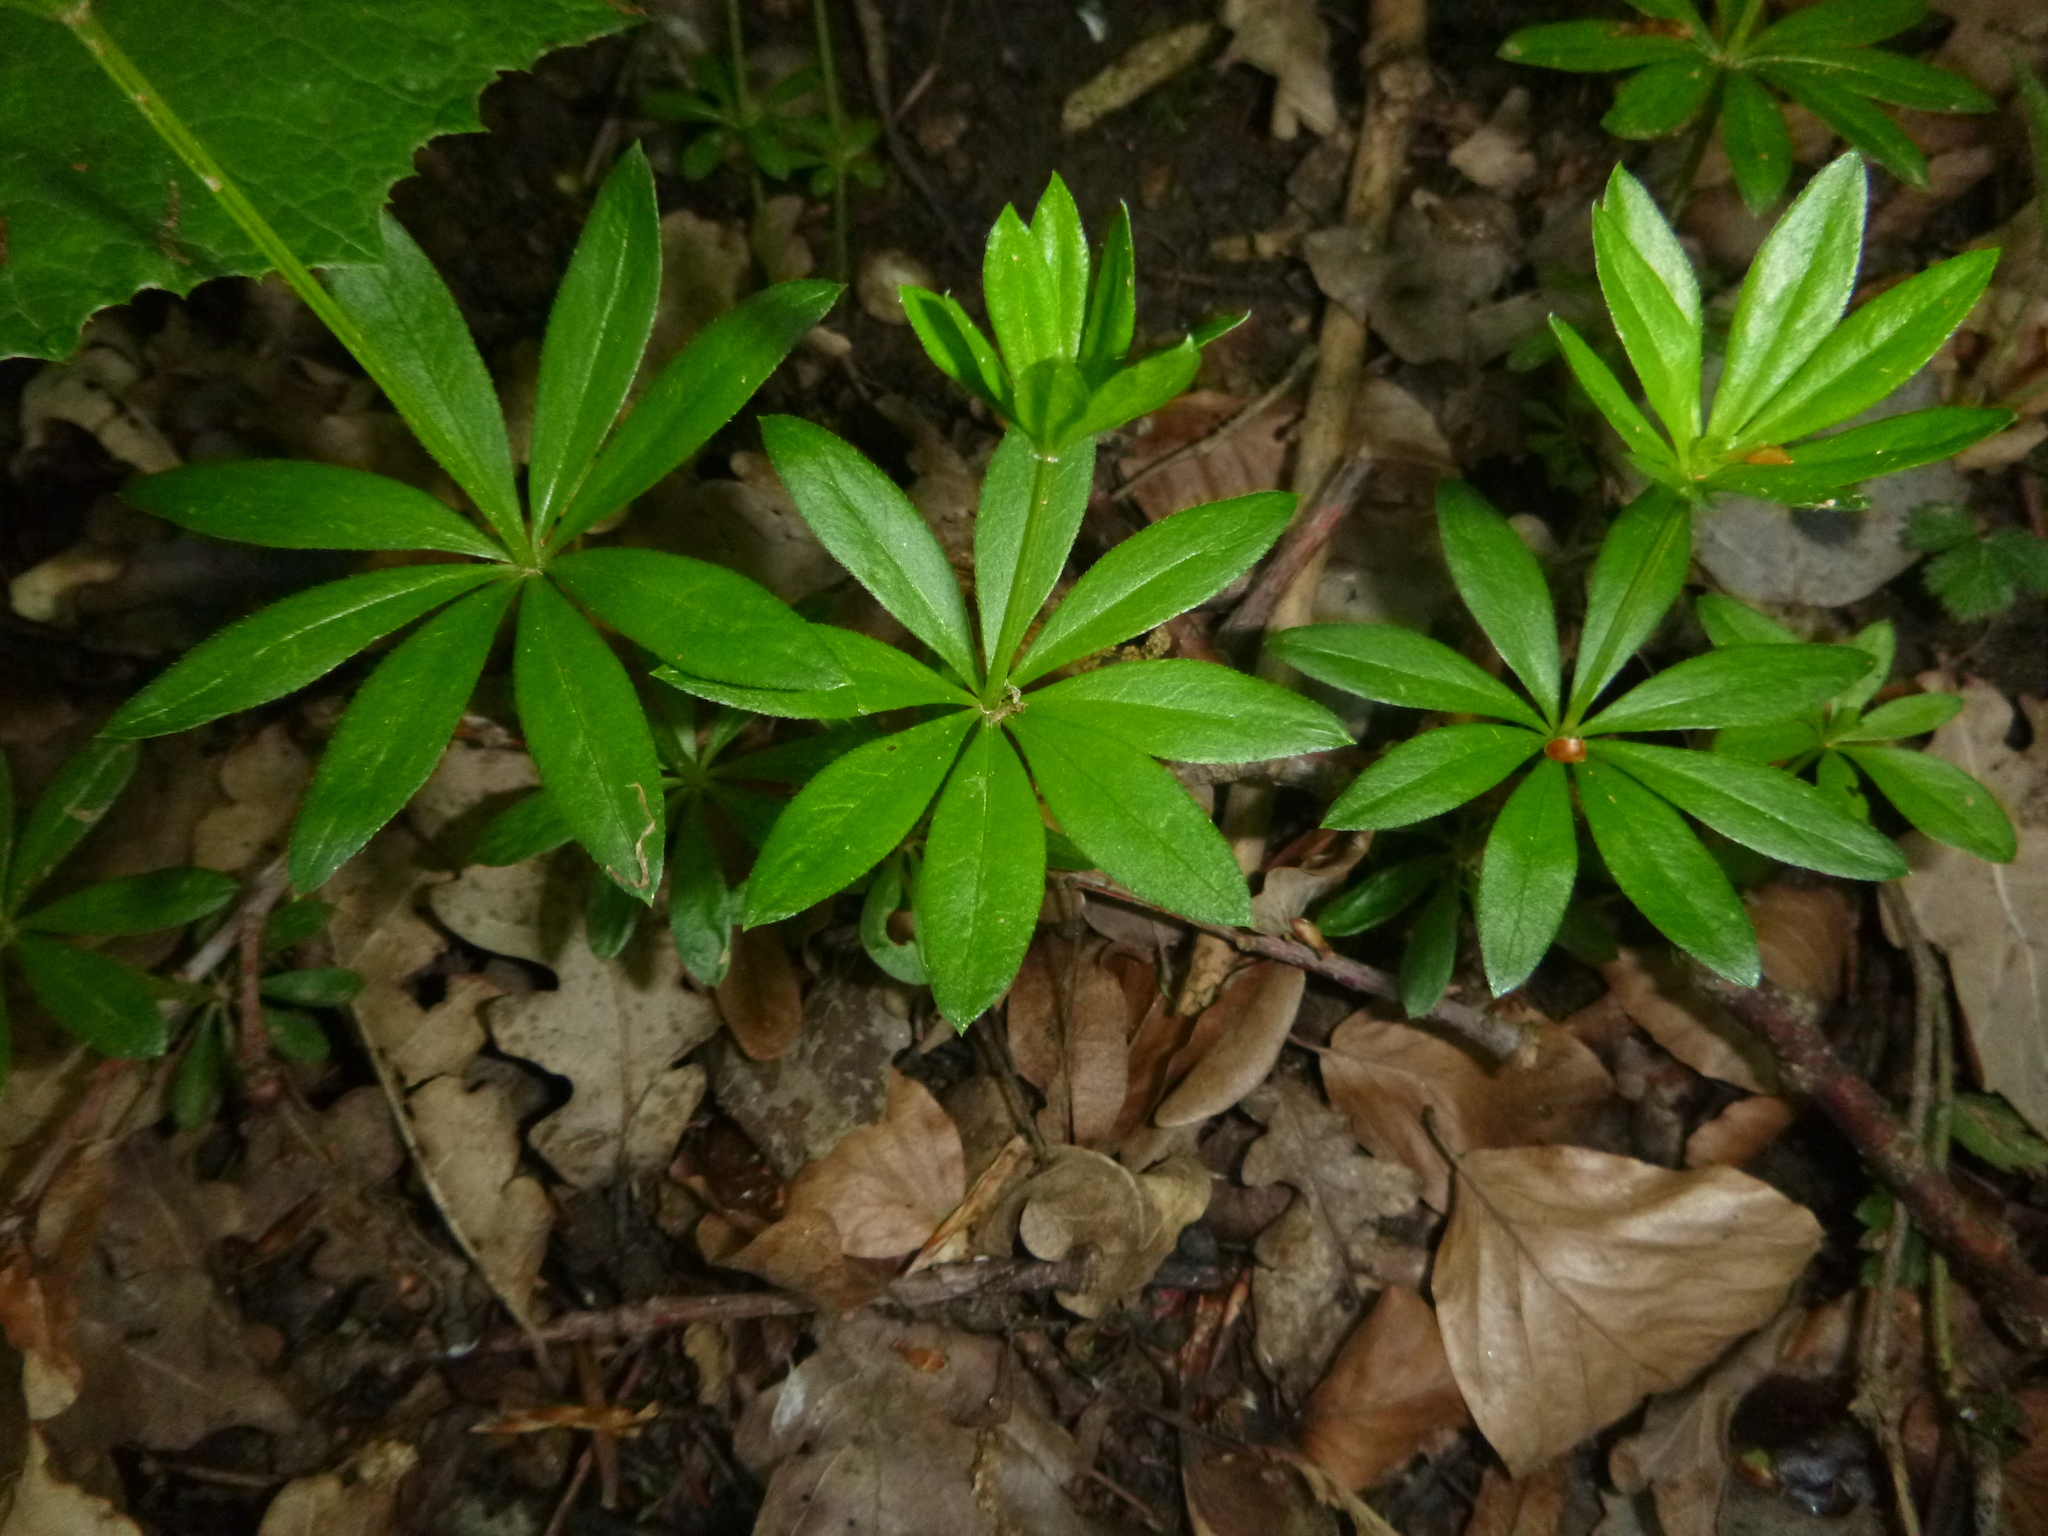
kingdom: Plantae
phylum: Tracheophyta
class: Magnoliopsida
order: Gentianales
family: Rubiaceae
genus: Galium
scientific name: Galium odoratum
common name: Sweet woodruff
